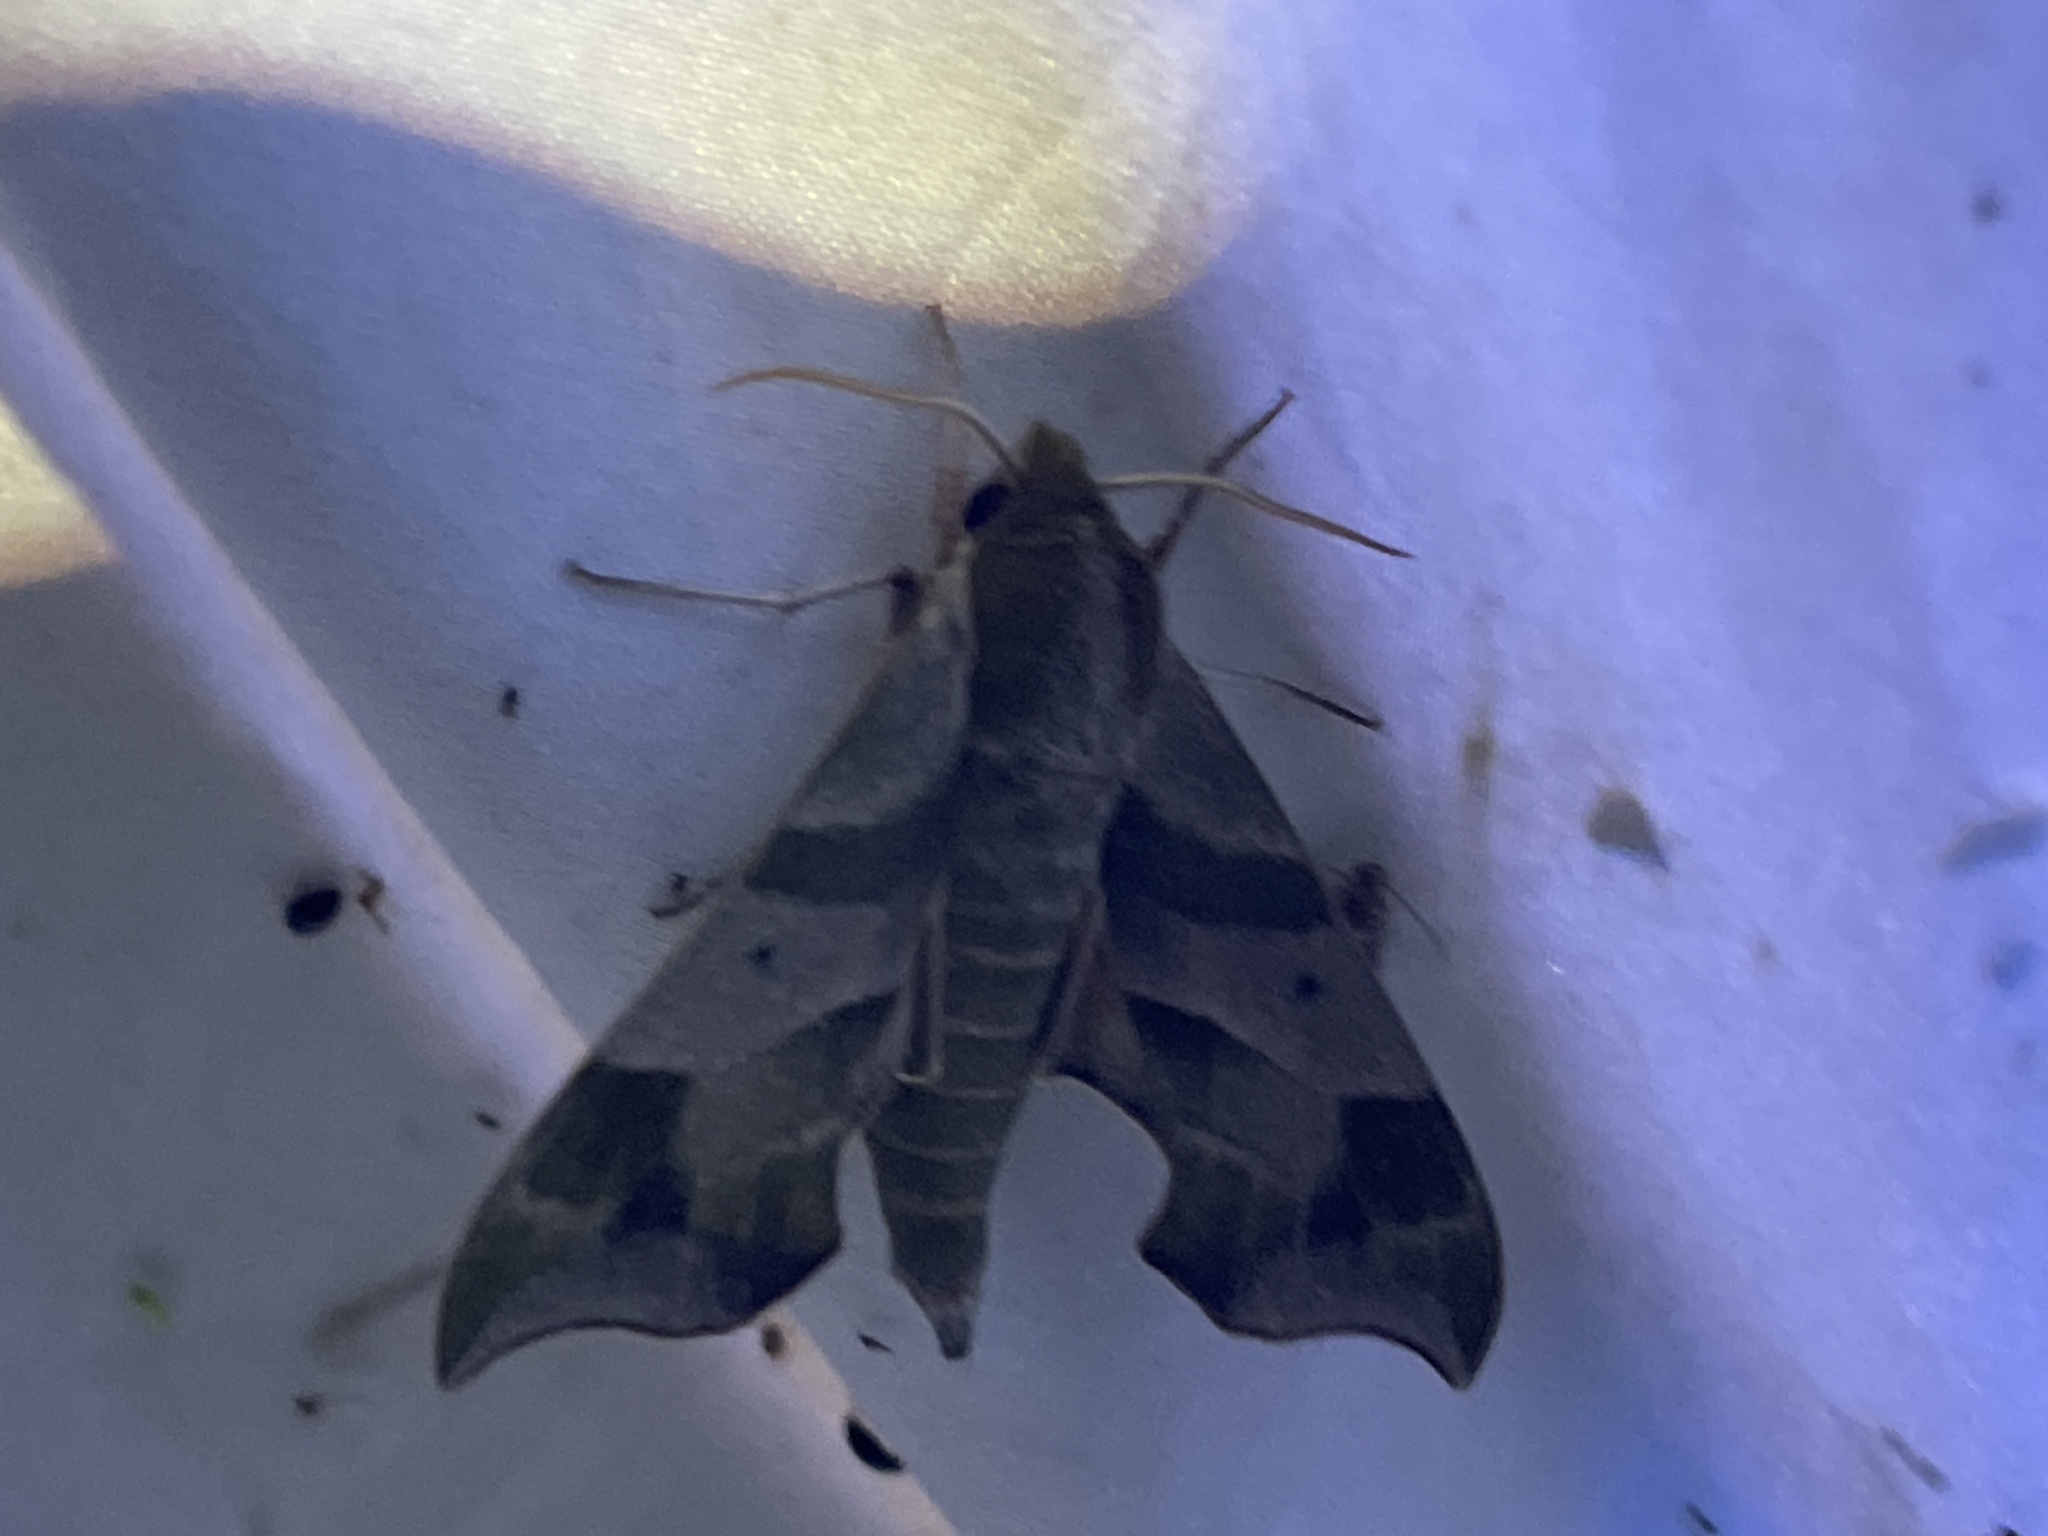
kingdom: Animalia
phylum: Arthropoda
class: Insecta
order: Lepidoptera
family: Sphingidae
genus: Darapsa
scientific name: Darapsa myron
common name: Hog sphinx
